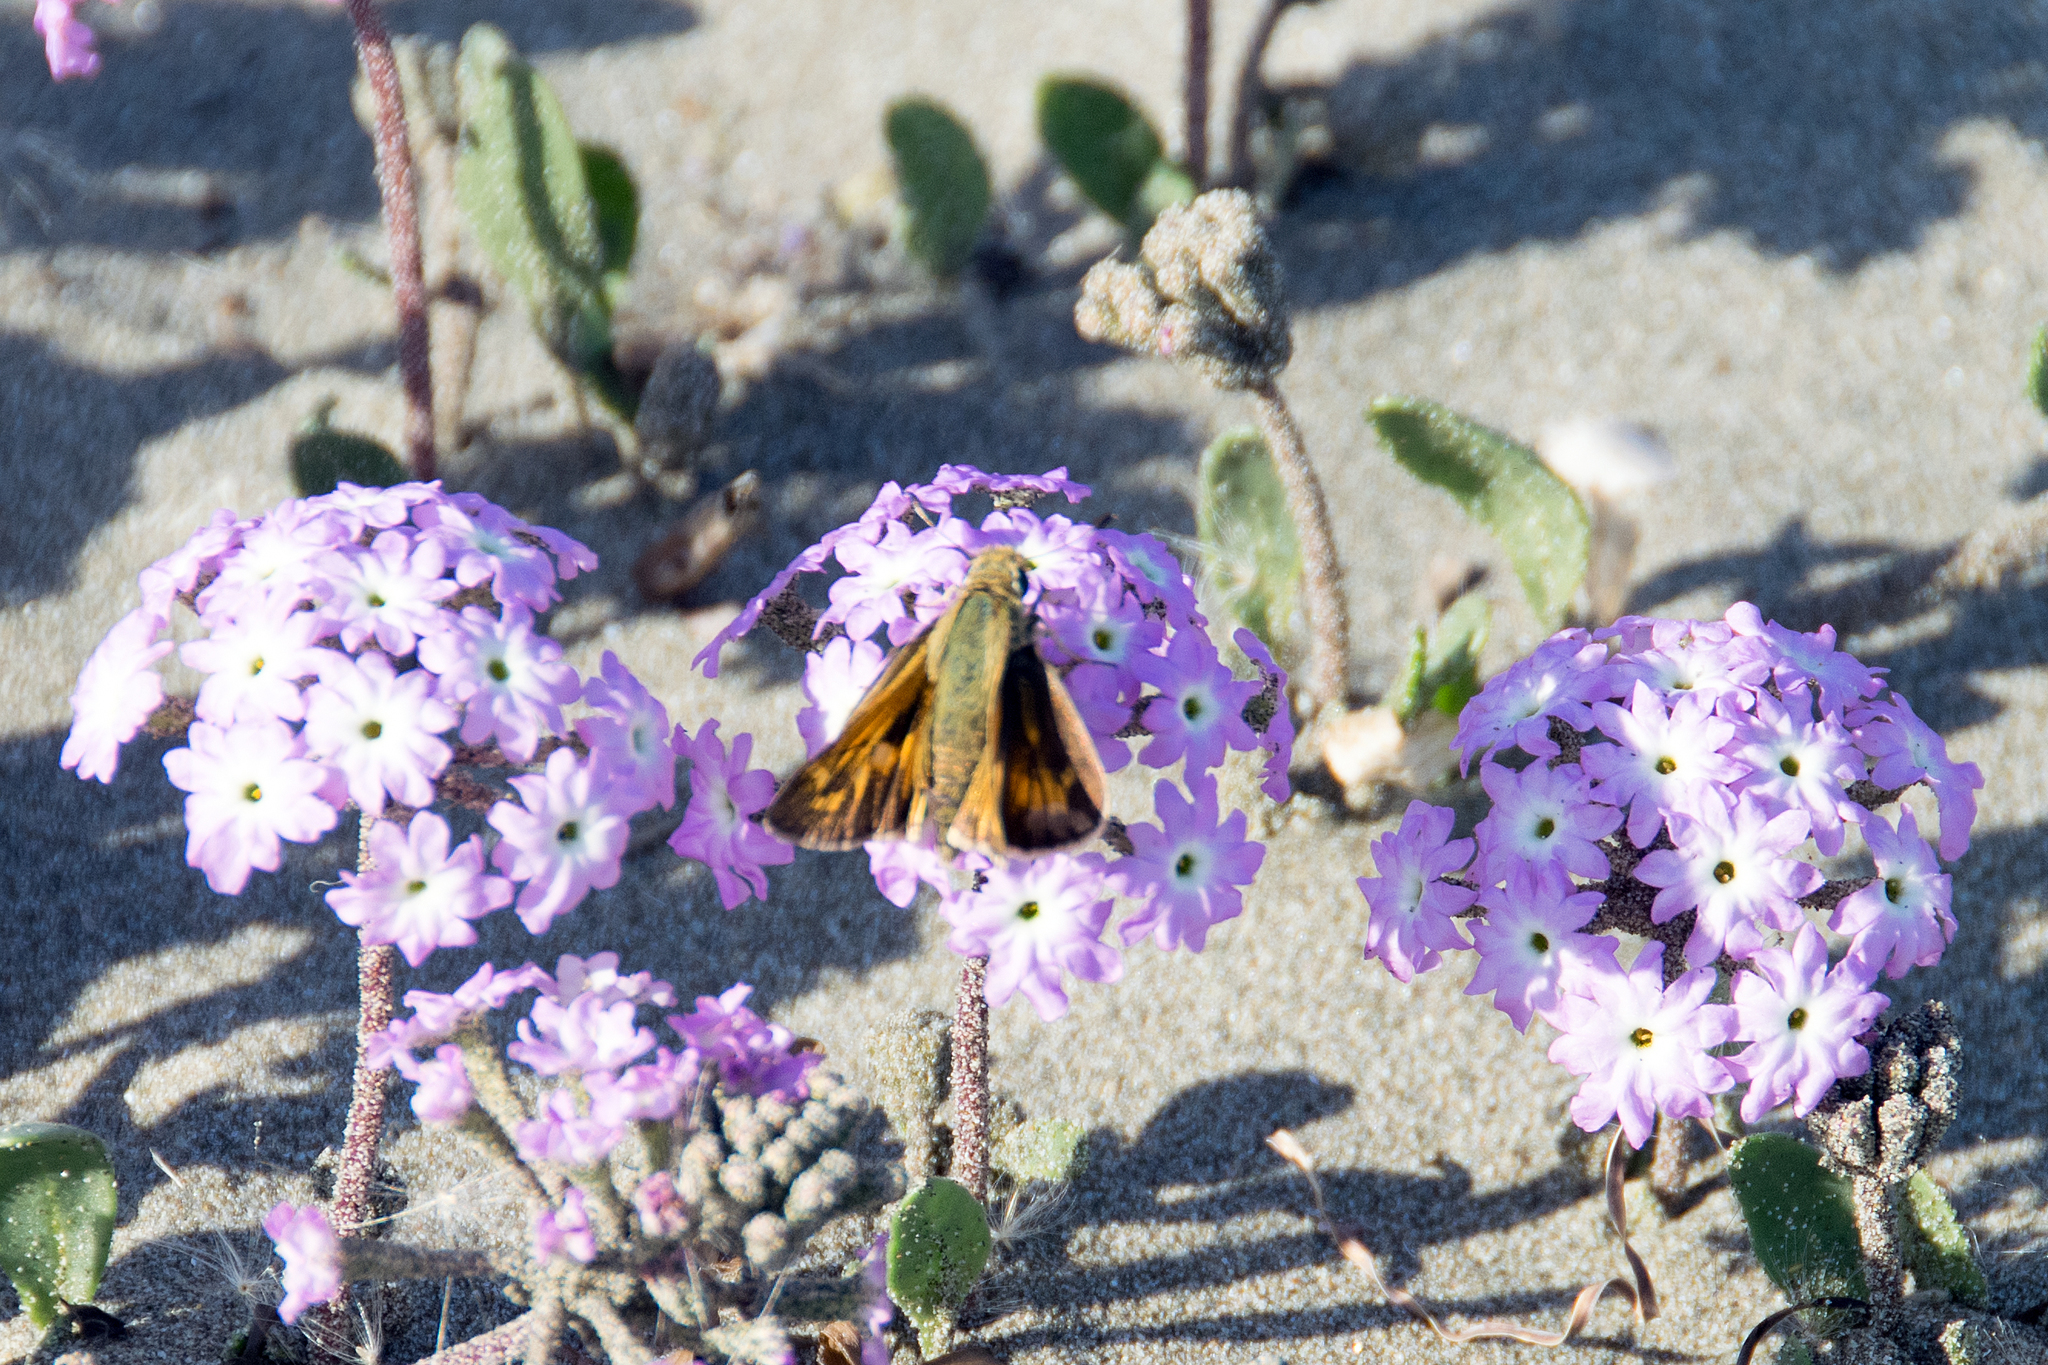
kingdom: Animalia
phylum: Arthropoda
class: Insecta
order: Lepidoptera
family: Hesperiidae
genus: Atalopedes
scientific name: Atalopedes campestris
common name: Sachem
